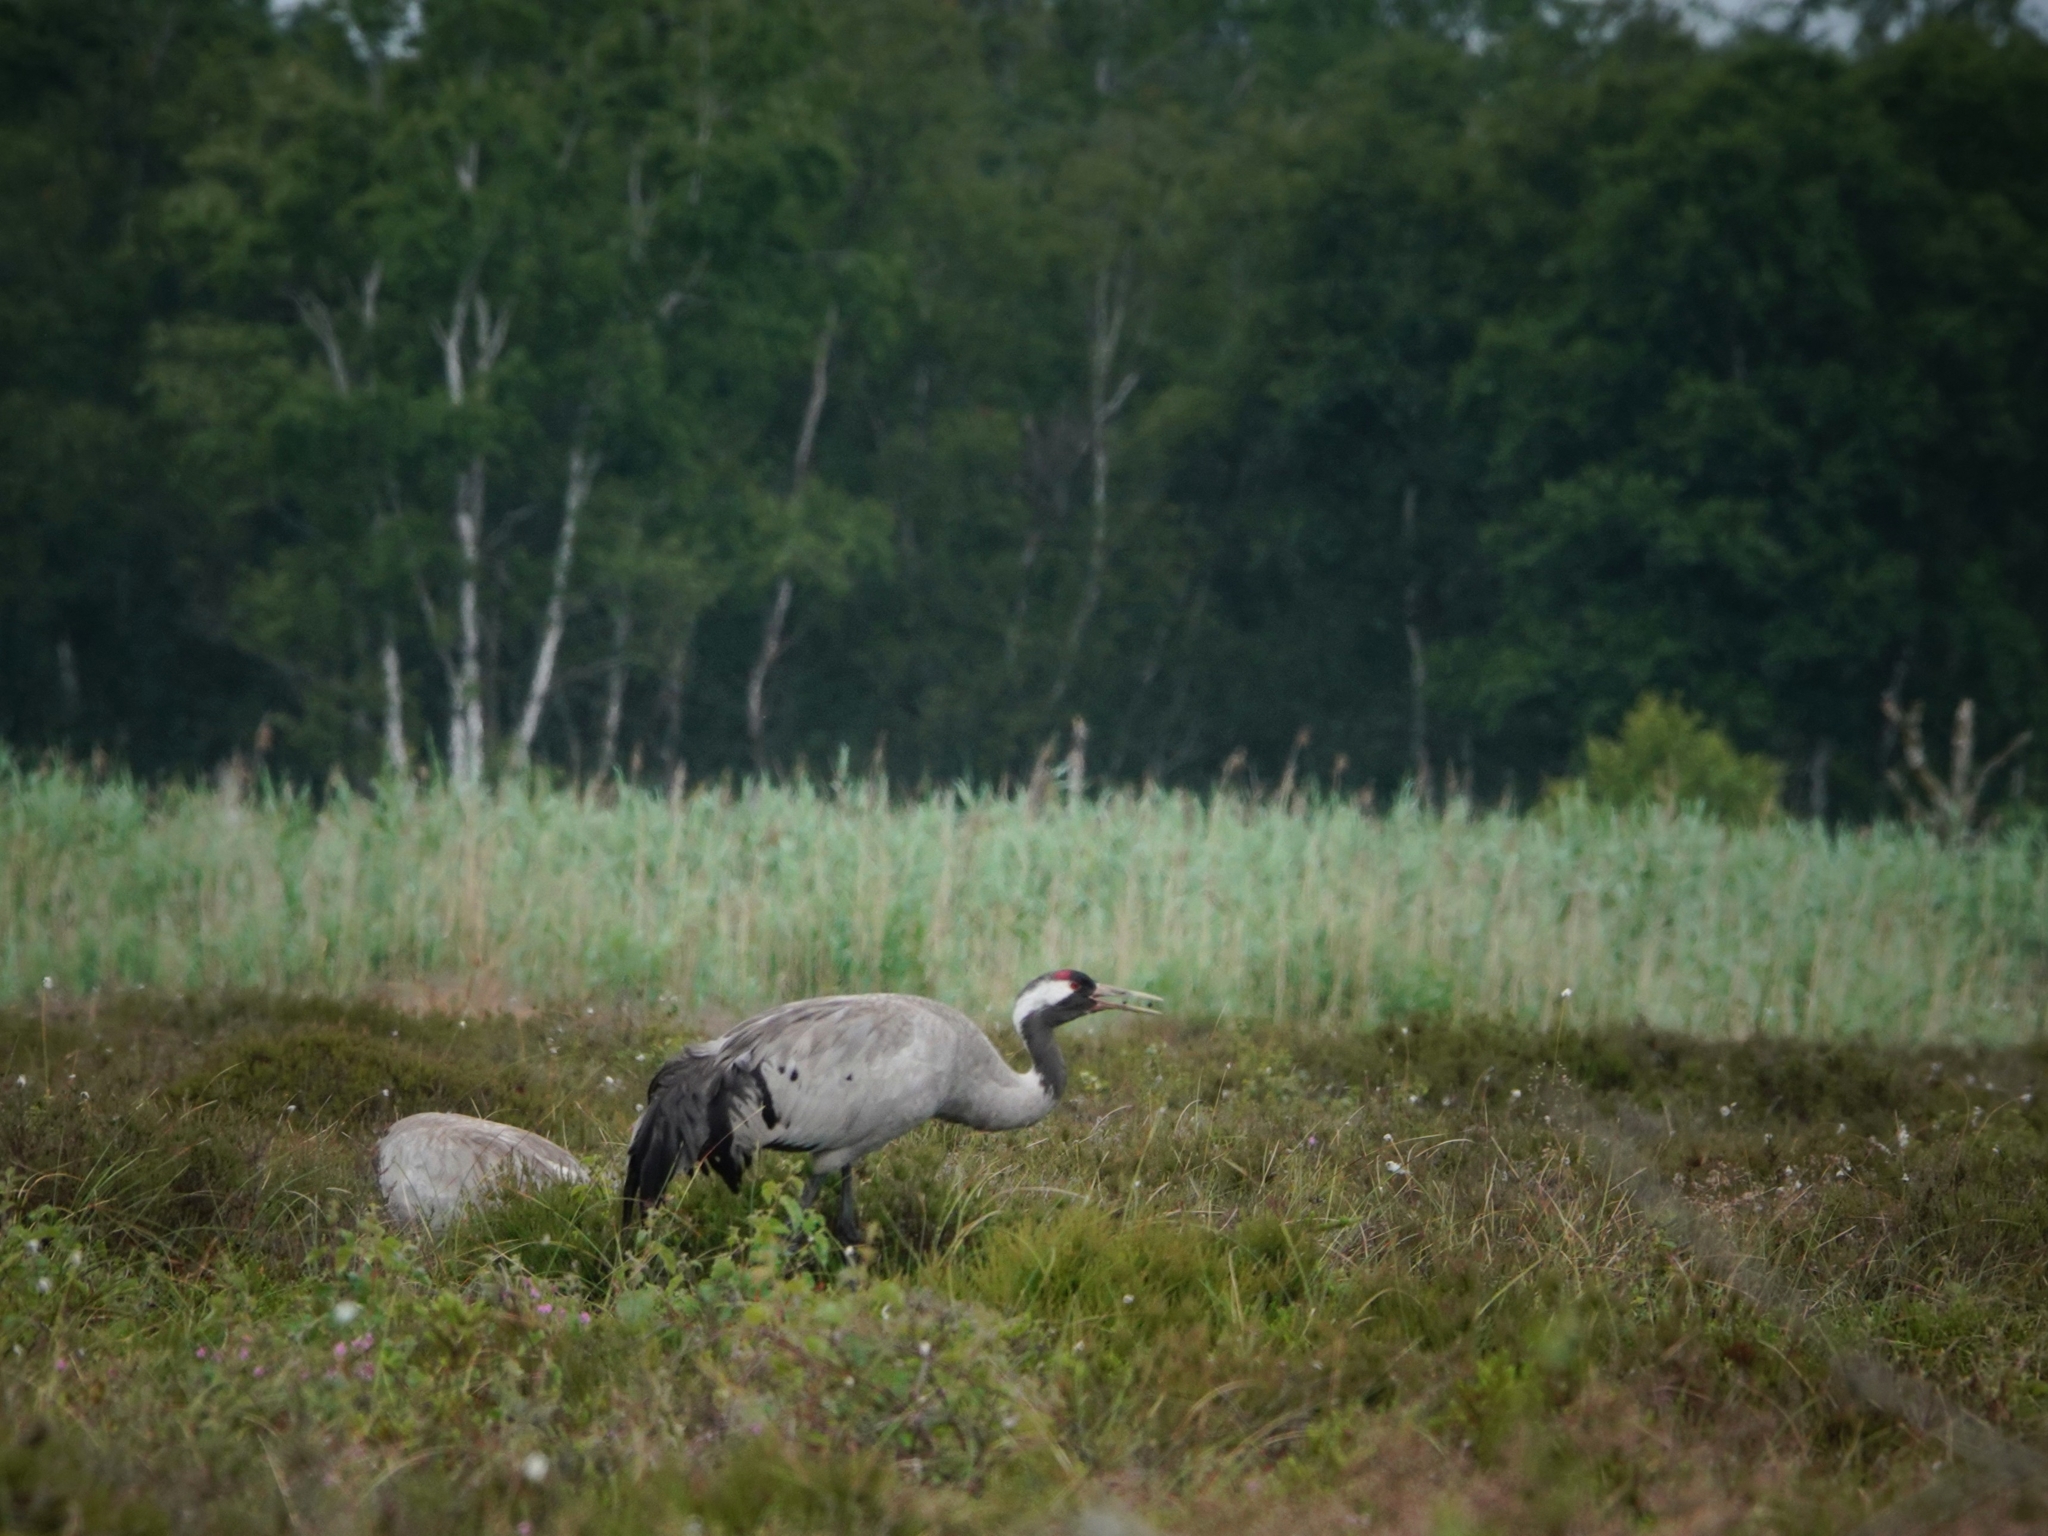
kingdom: Animalia
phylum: Chordata
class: Aves
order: Gruiformes
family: Gruidae
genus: Grus
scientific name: Grus grus
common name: Common crane
